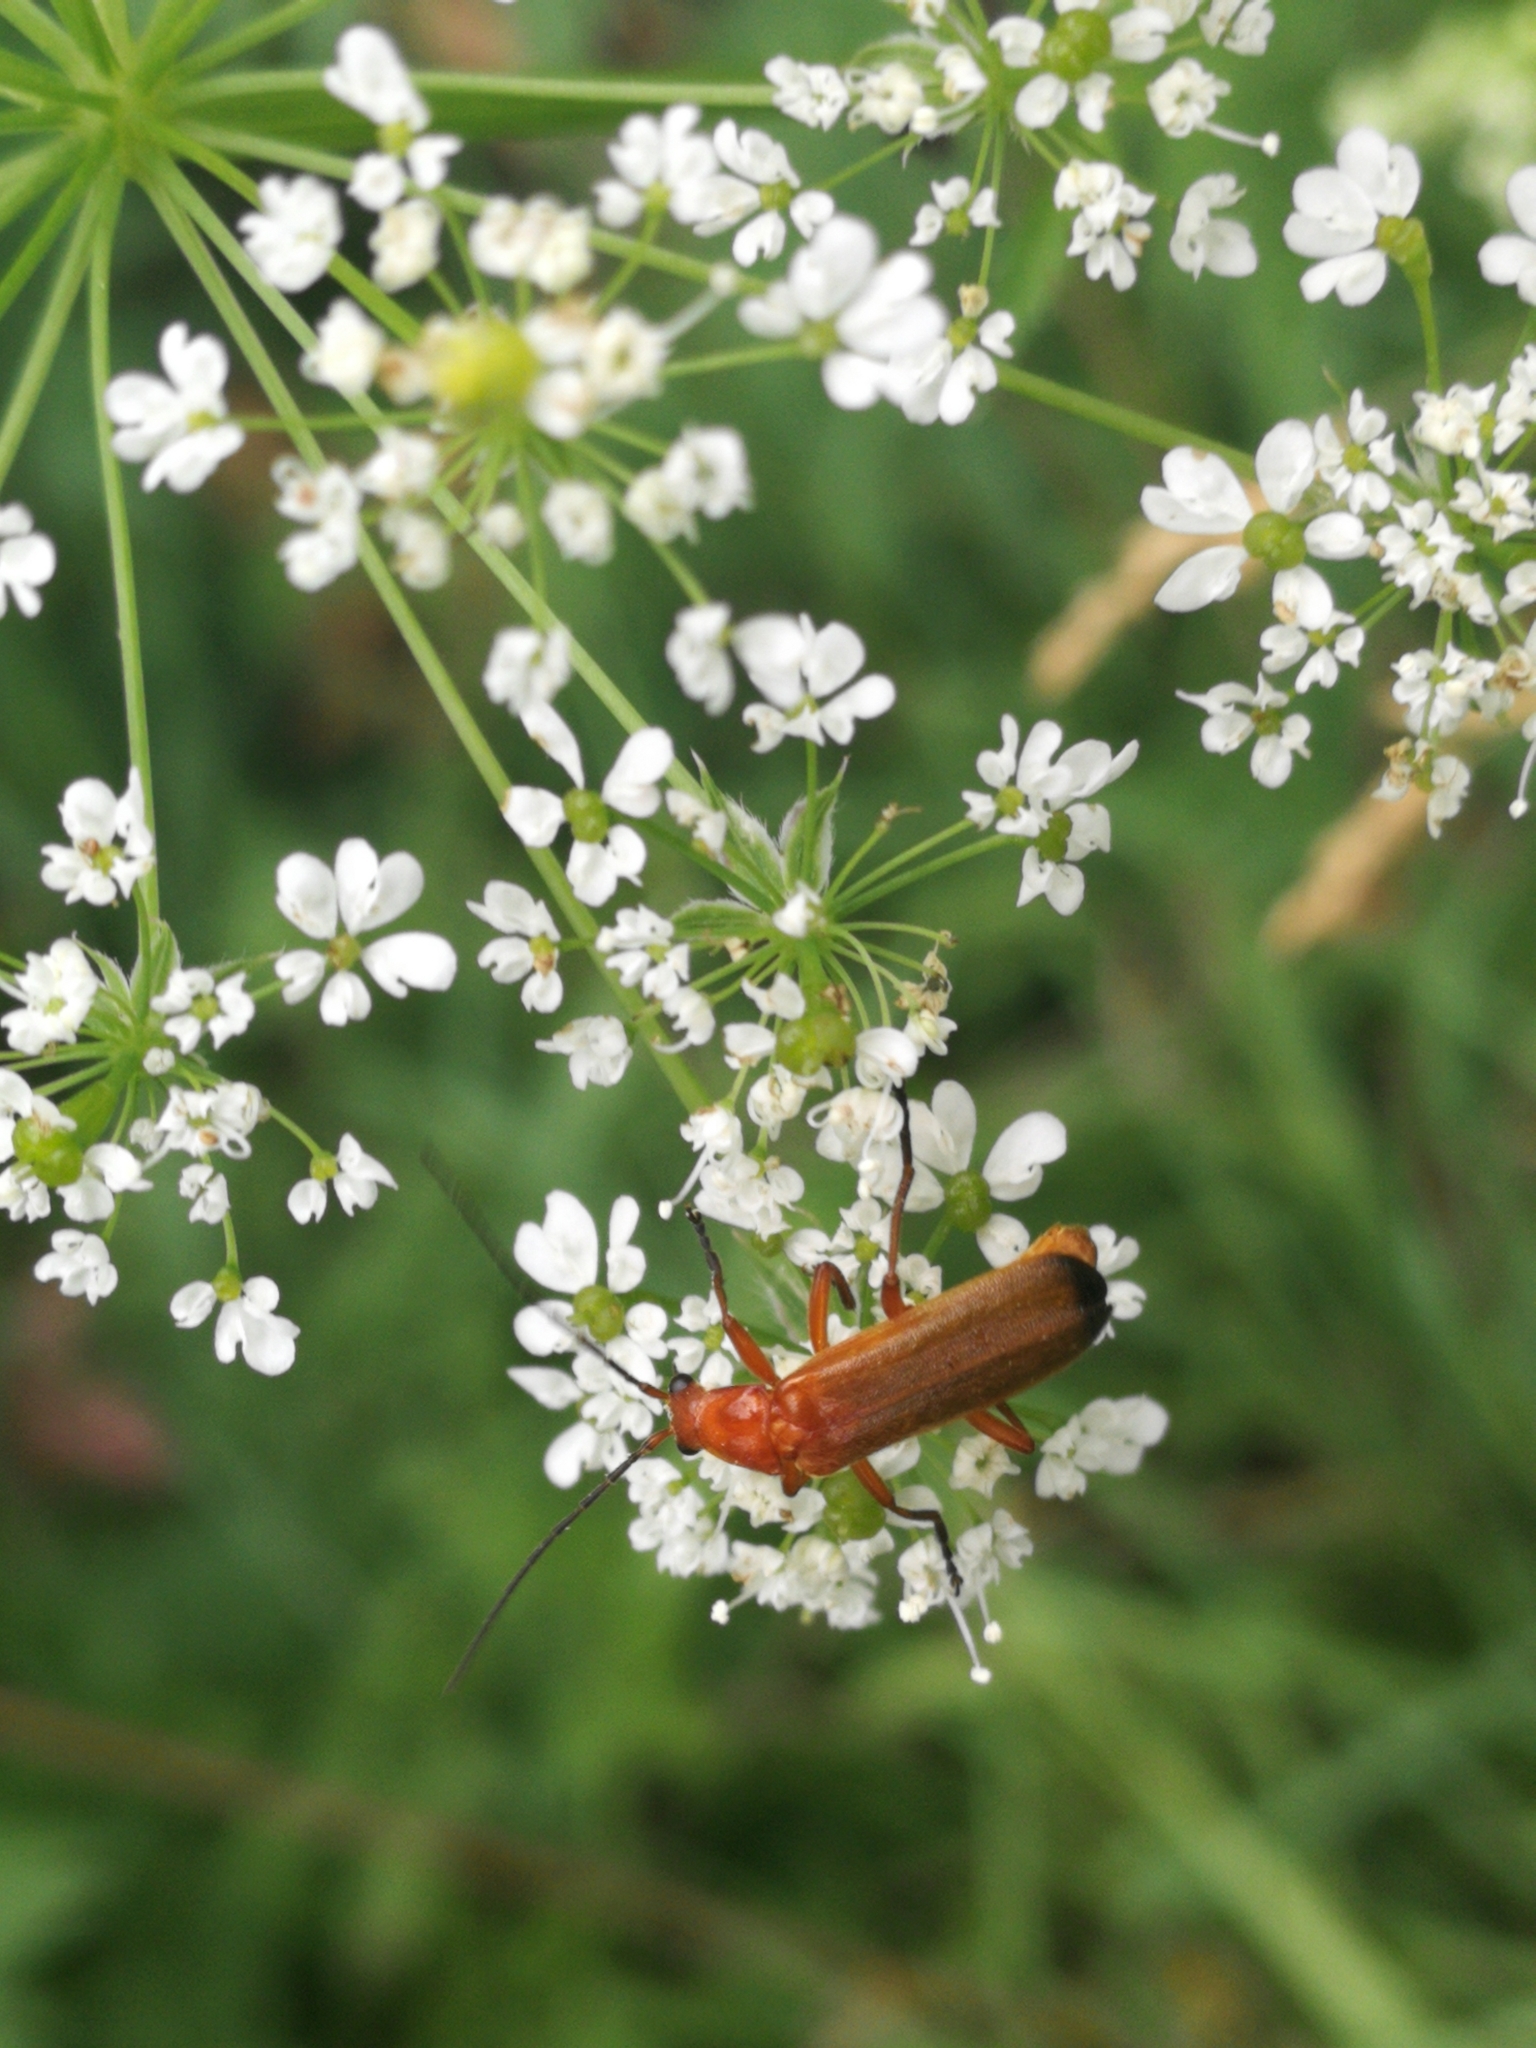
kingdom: Animalia
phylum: Arthropoda
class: Insecta
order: Coleoptera
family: Cantharidae
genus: Rhagonycha
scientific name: Rhagonycha fulva
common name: Common red soldier beetle
